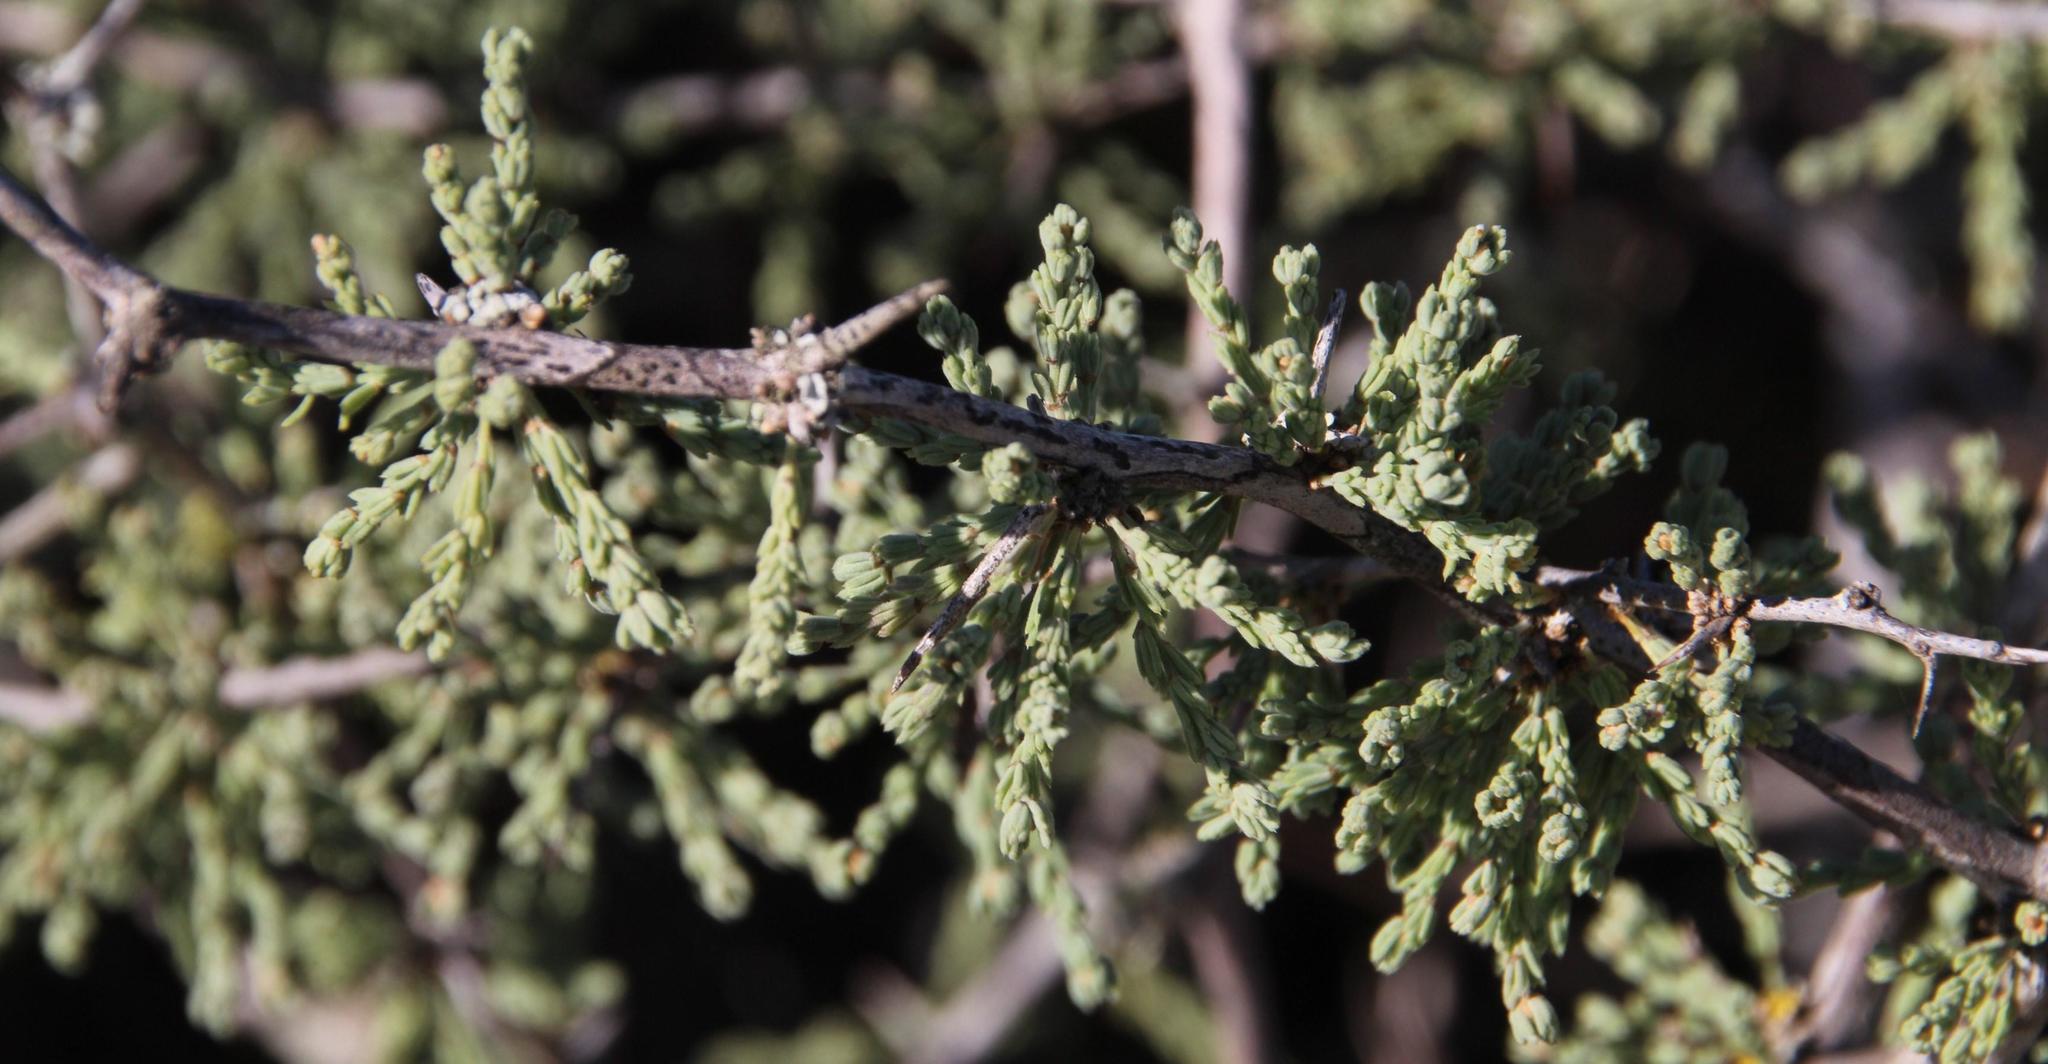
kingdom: Plantae
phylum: Tracheophyta
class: Liliopsida
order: Asparagales
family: Asparagaceae
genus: Asparagus
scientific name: Asparagus capensis
